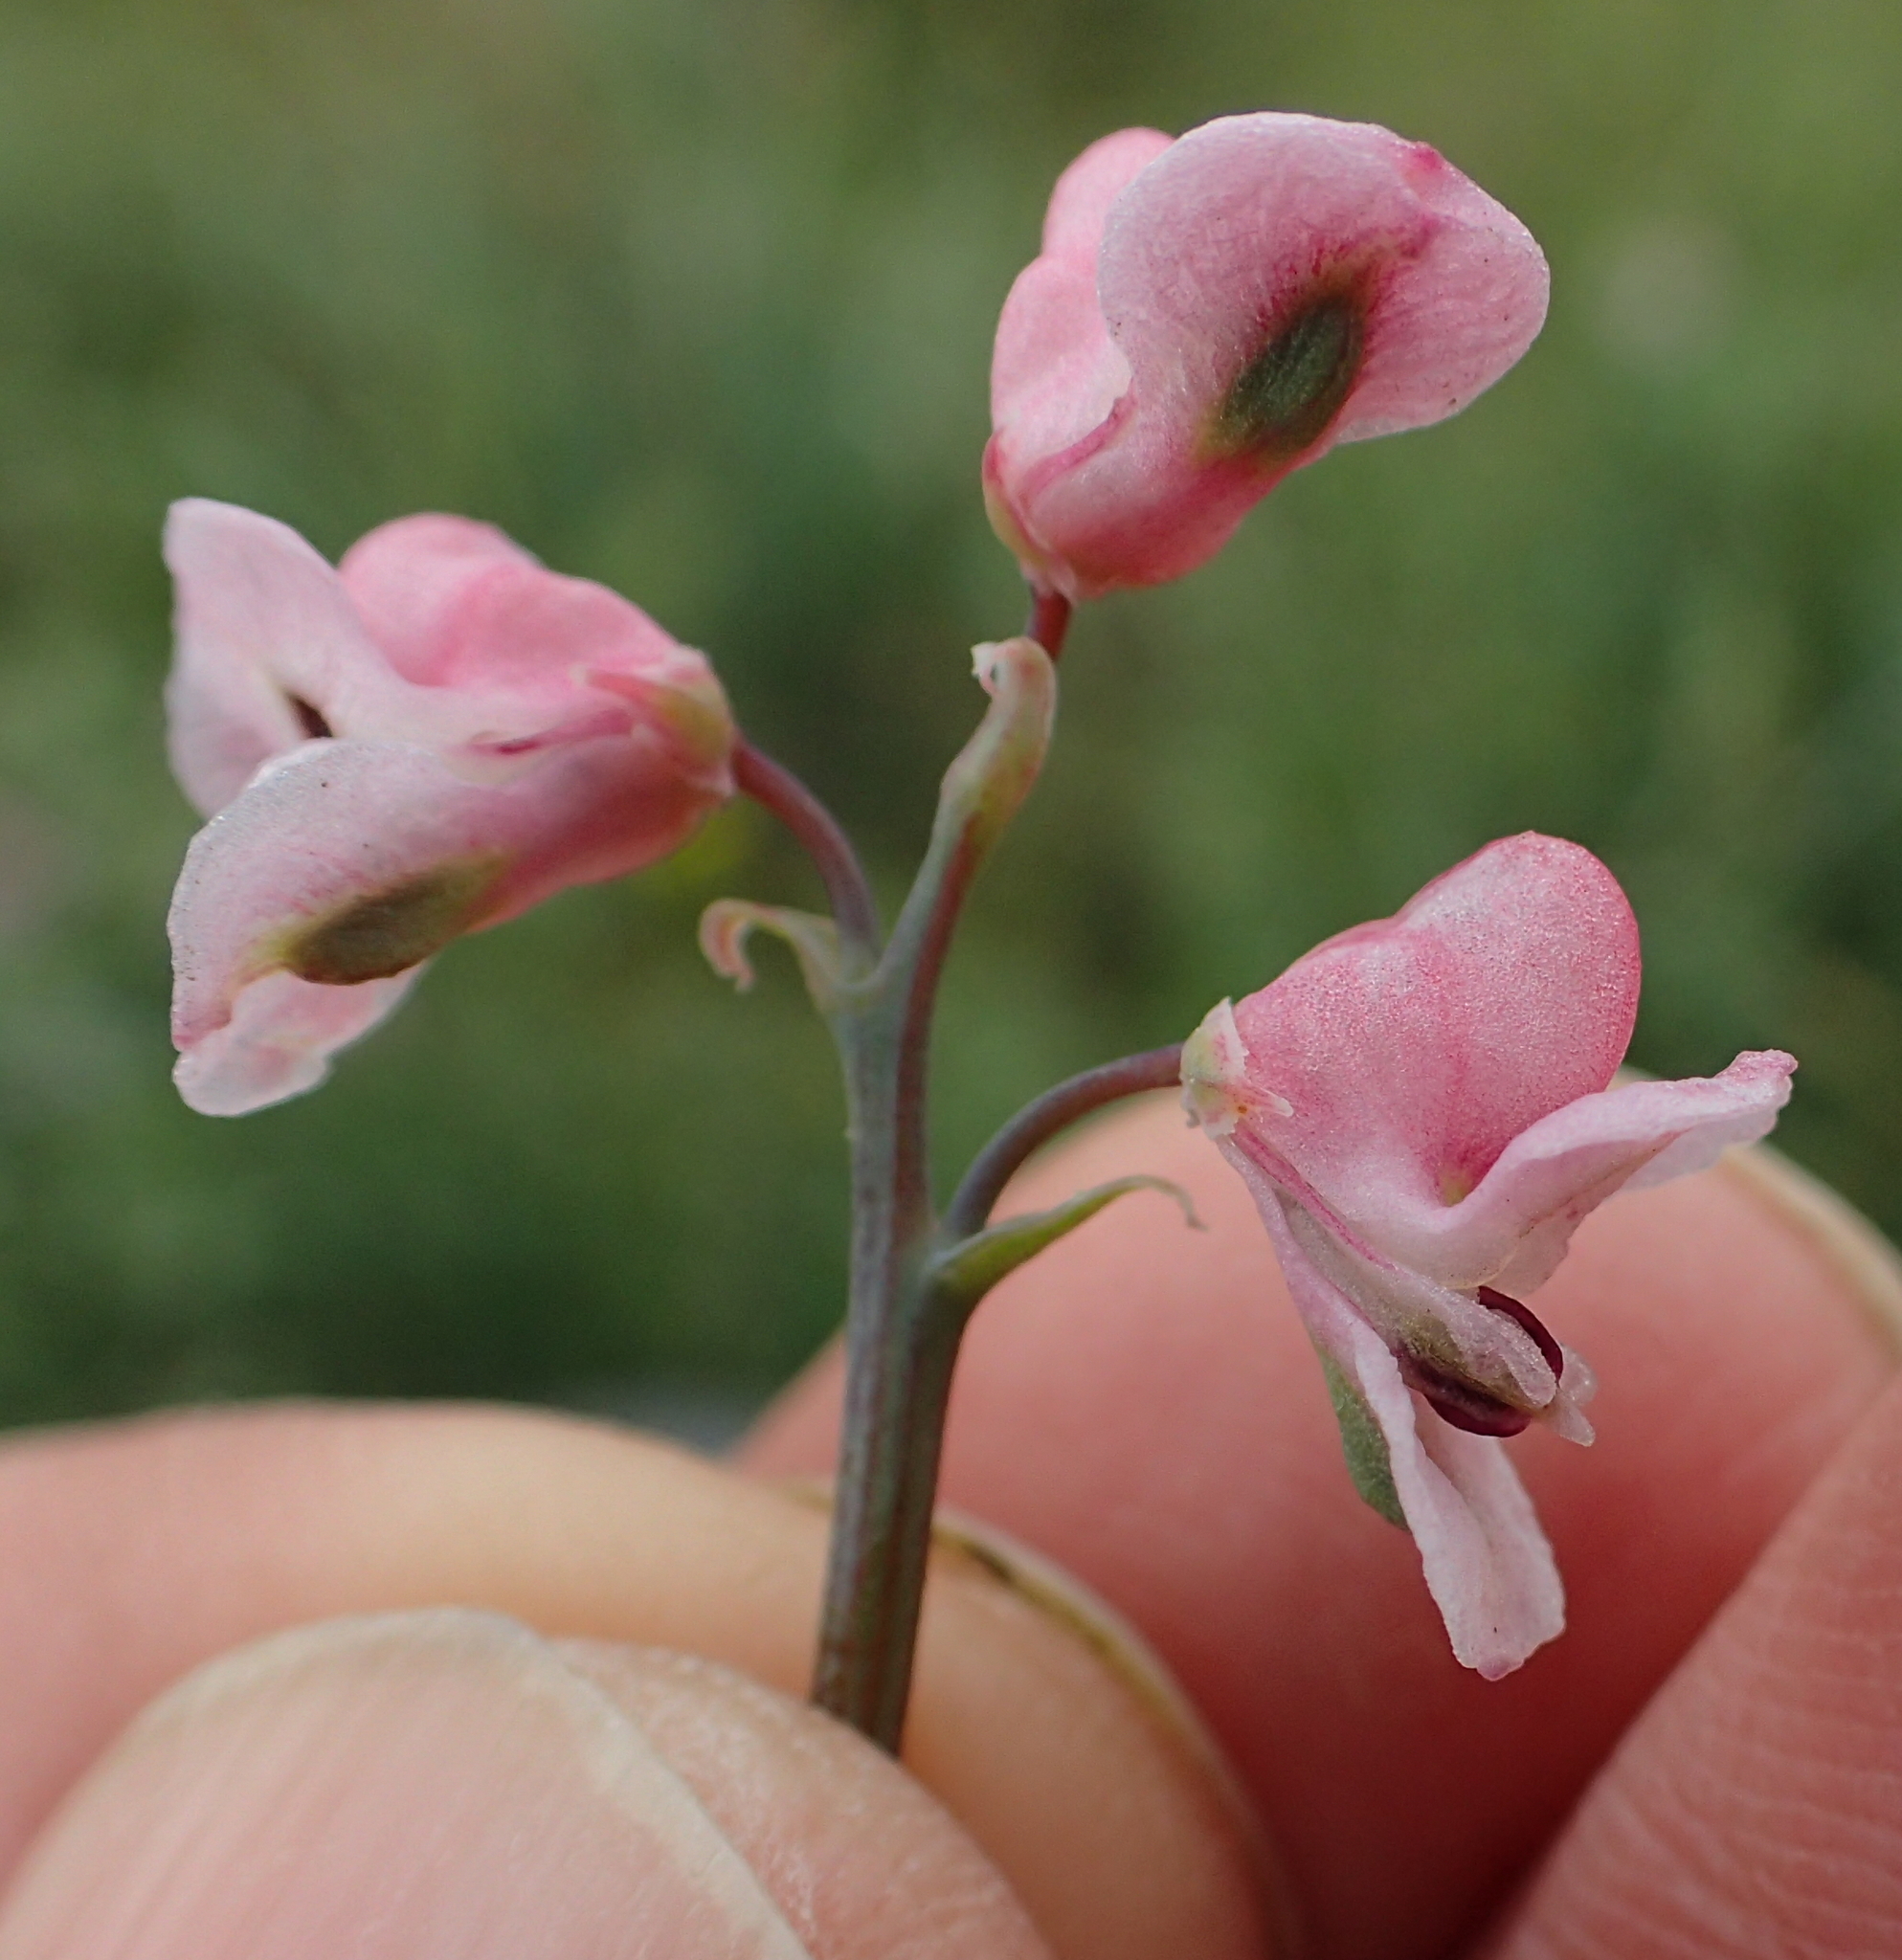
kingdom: Plantae
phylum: Tracheophyta
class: Magnoliopsida
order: Ranunculales
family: Papaveraceae
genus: Cysticapnos
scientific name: Cysticapnos pruinosa
